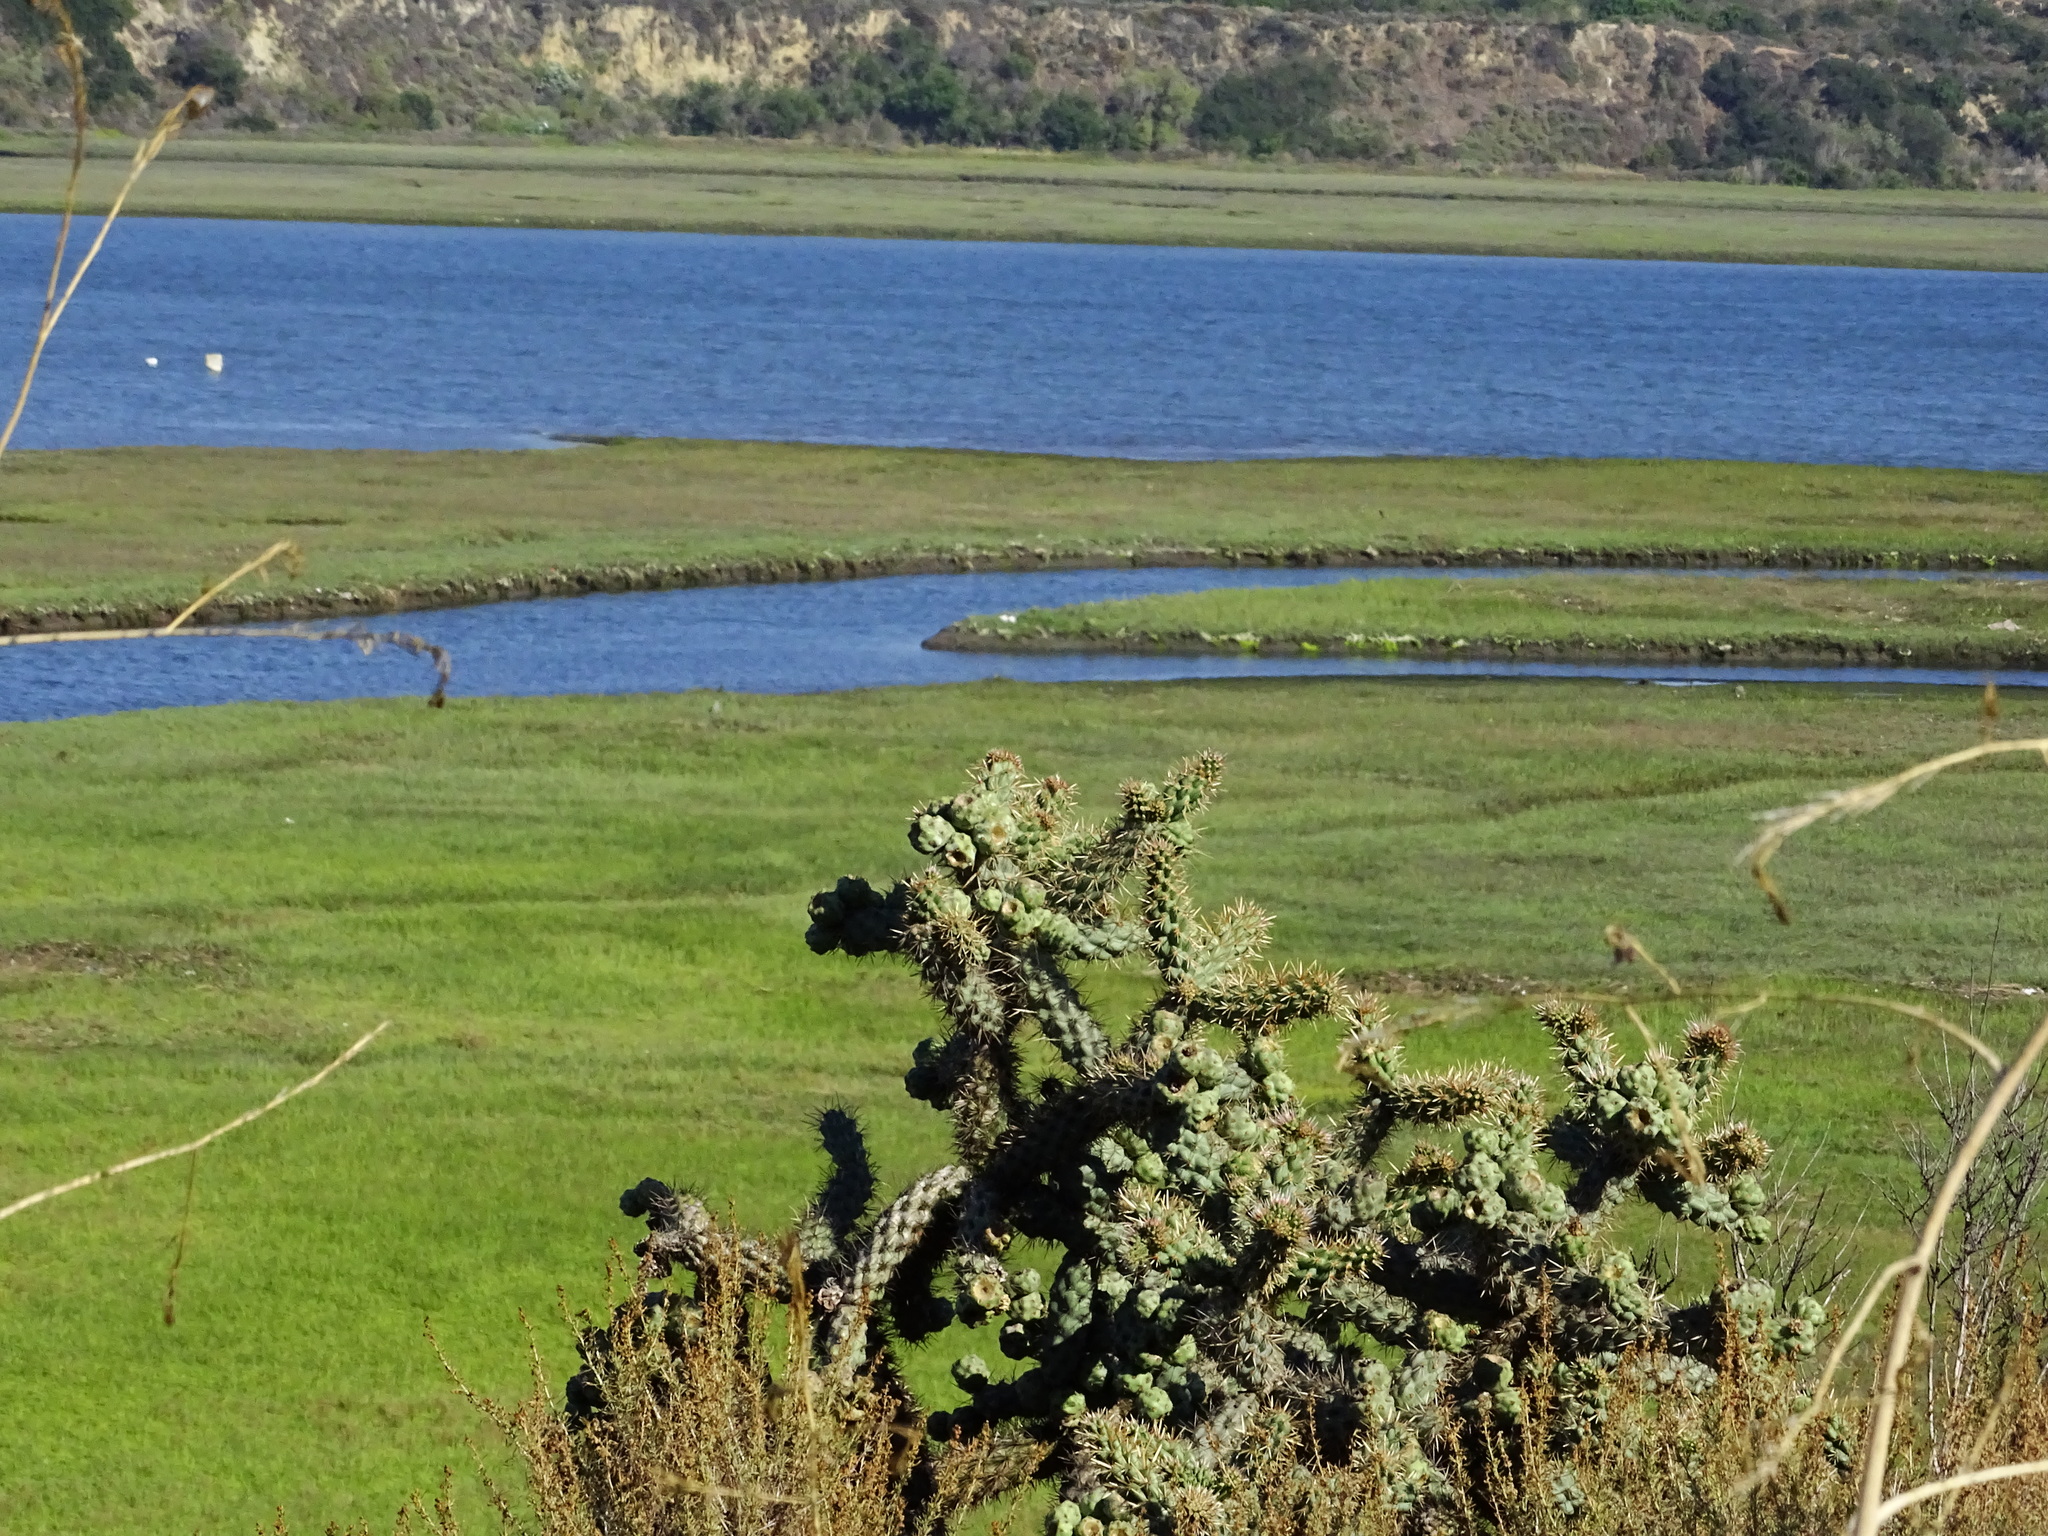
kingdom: Plantae
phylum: Tracheophyta
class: Magnoliopsida
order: Caryophyllales
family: Cactaceae
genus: Cylindropuntia
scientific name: Cylindropuntia prolifera
